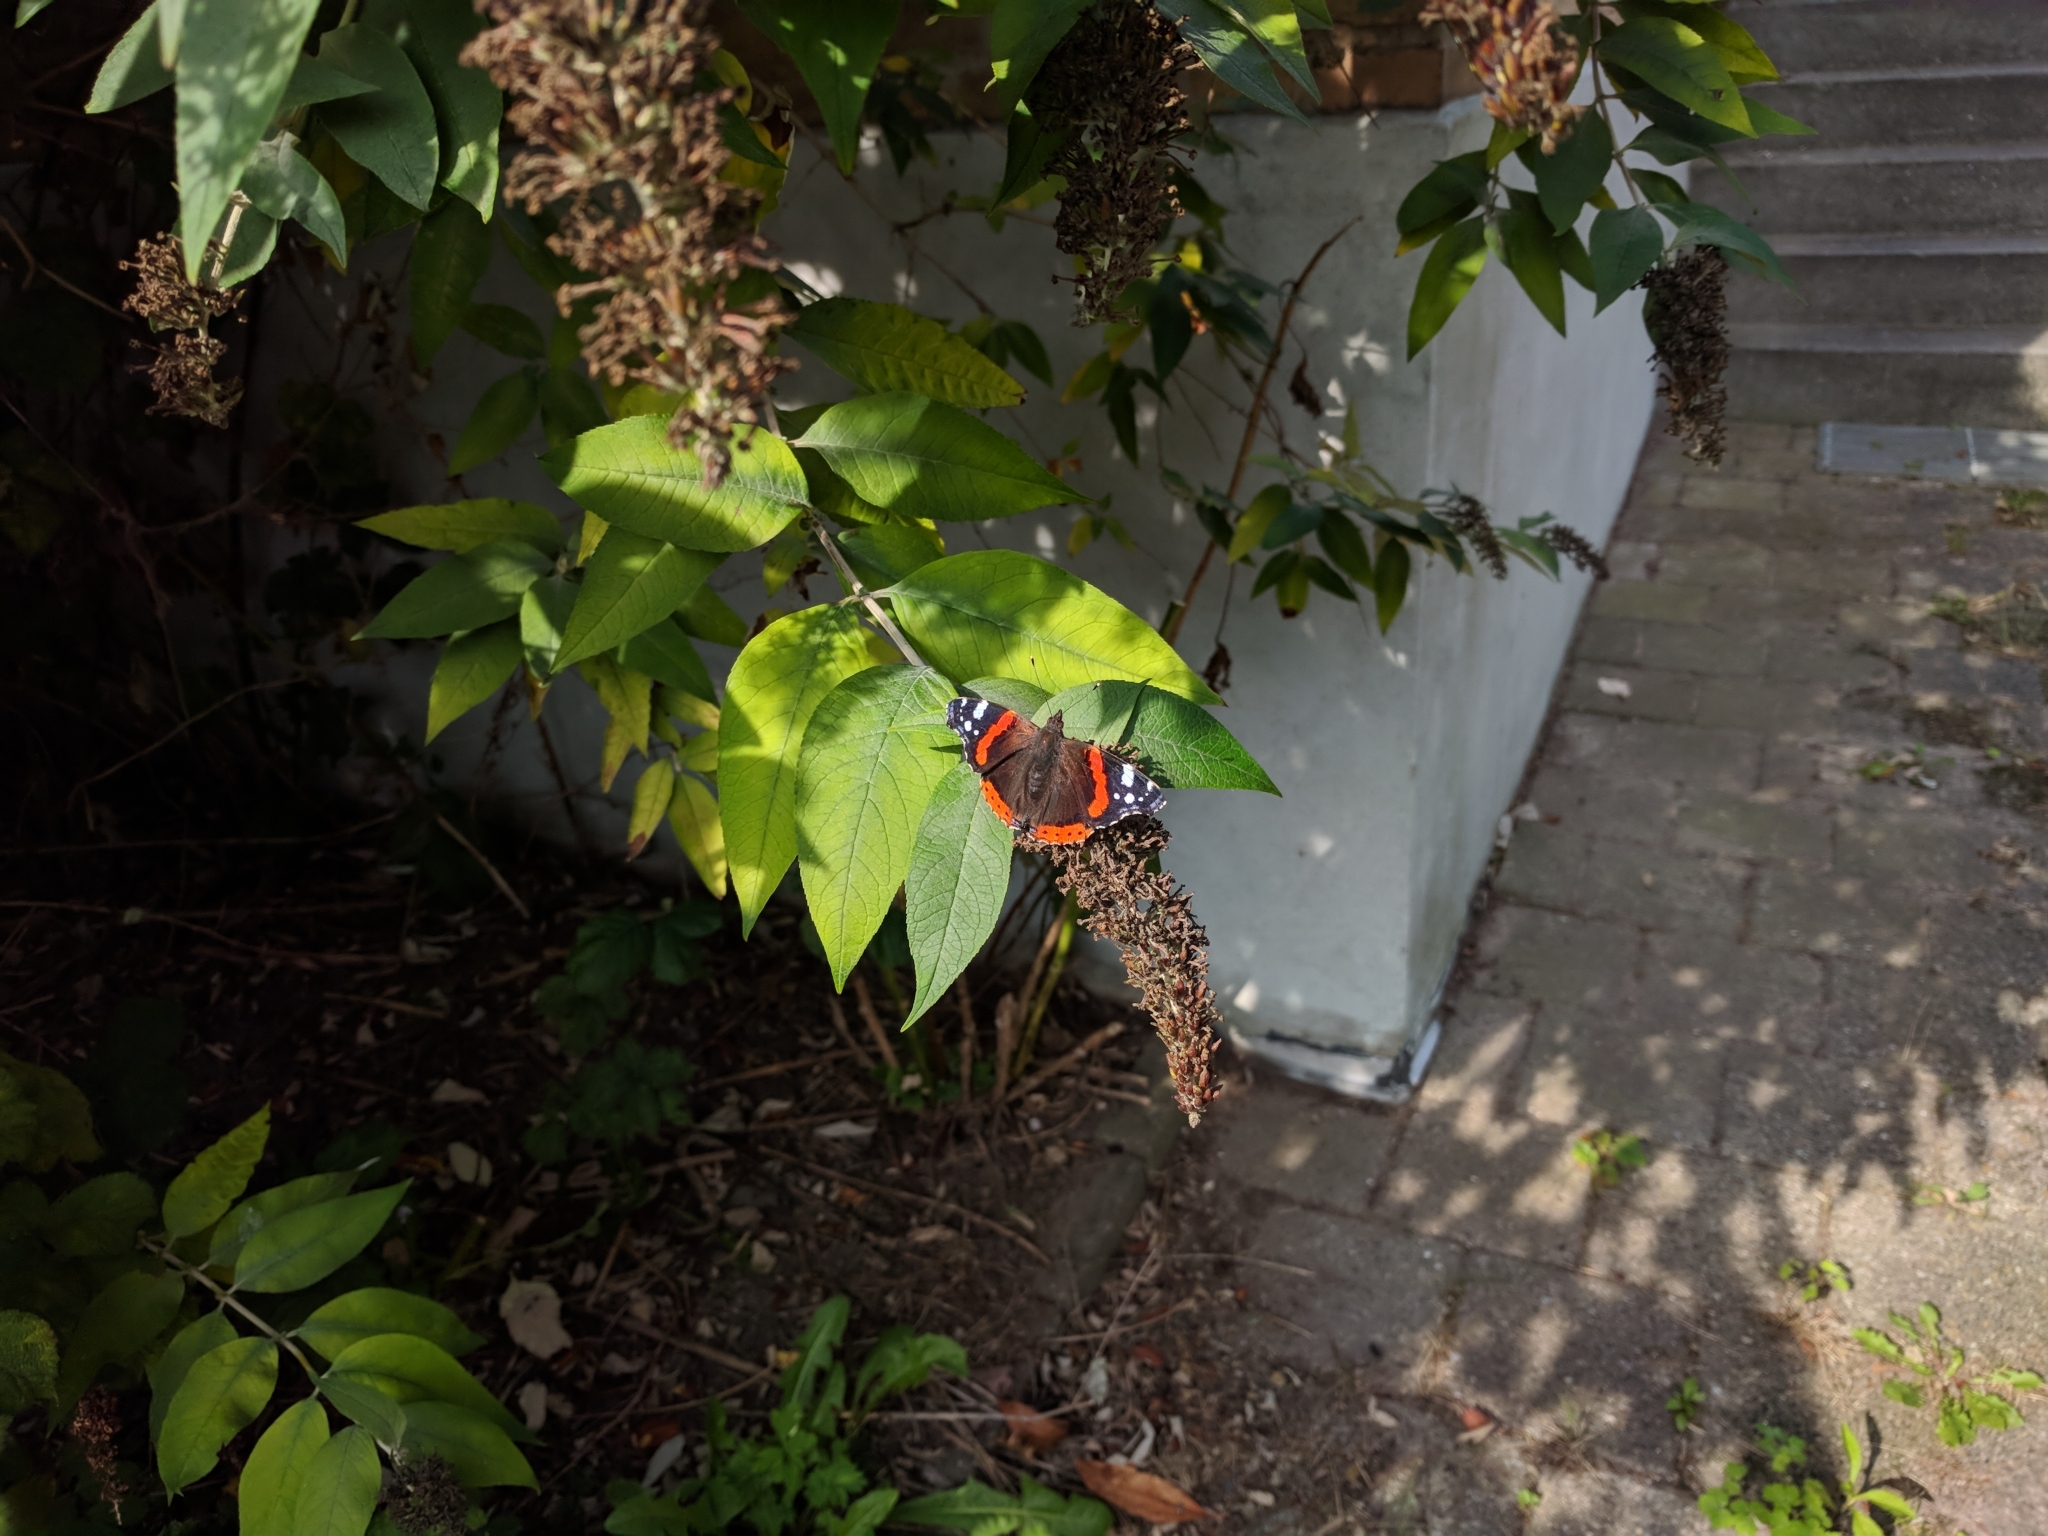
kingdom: Animalia
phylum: Arthropoda
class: Insecta
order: Lepidoptera
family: Nymphalidae
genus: Vanessa
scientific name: Vanessa atalanta
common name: Red admiral
